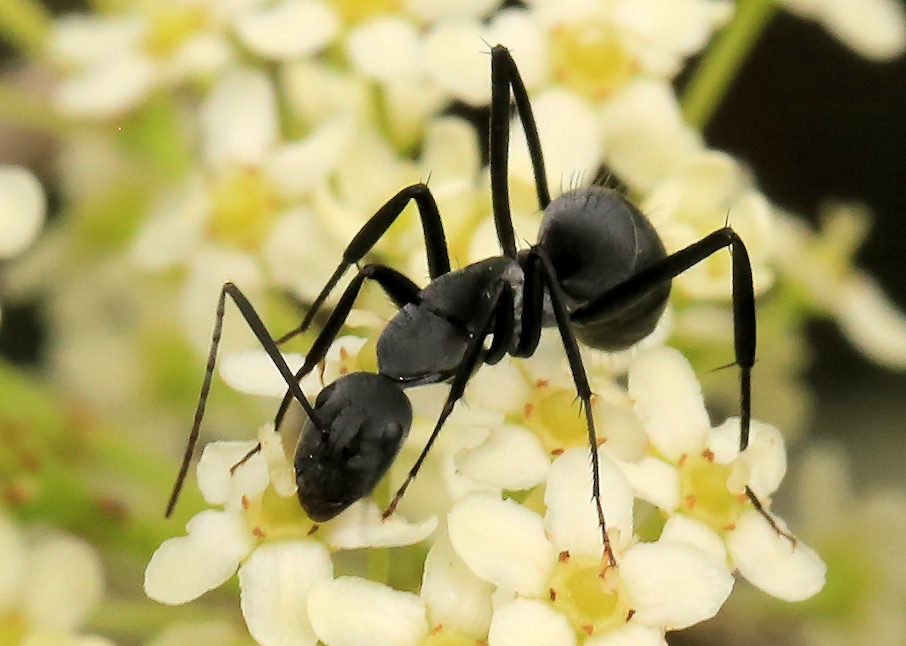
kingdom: Animalia
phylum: Arthropoda
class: Insecta
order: Hymenoptera
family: Formicidae
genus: Camponotus
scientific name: Camponotus petersii
